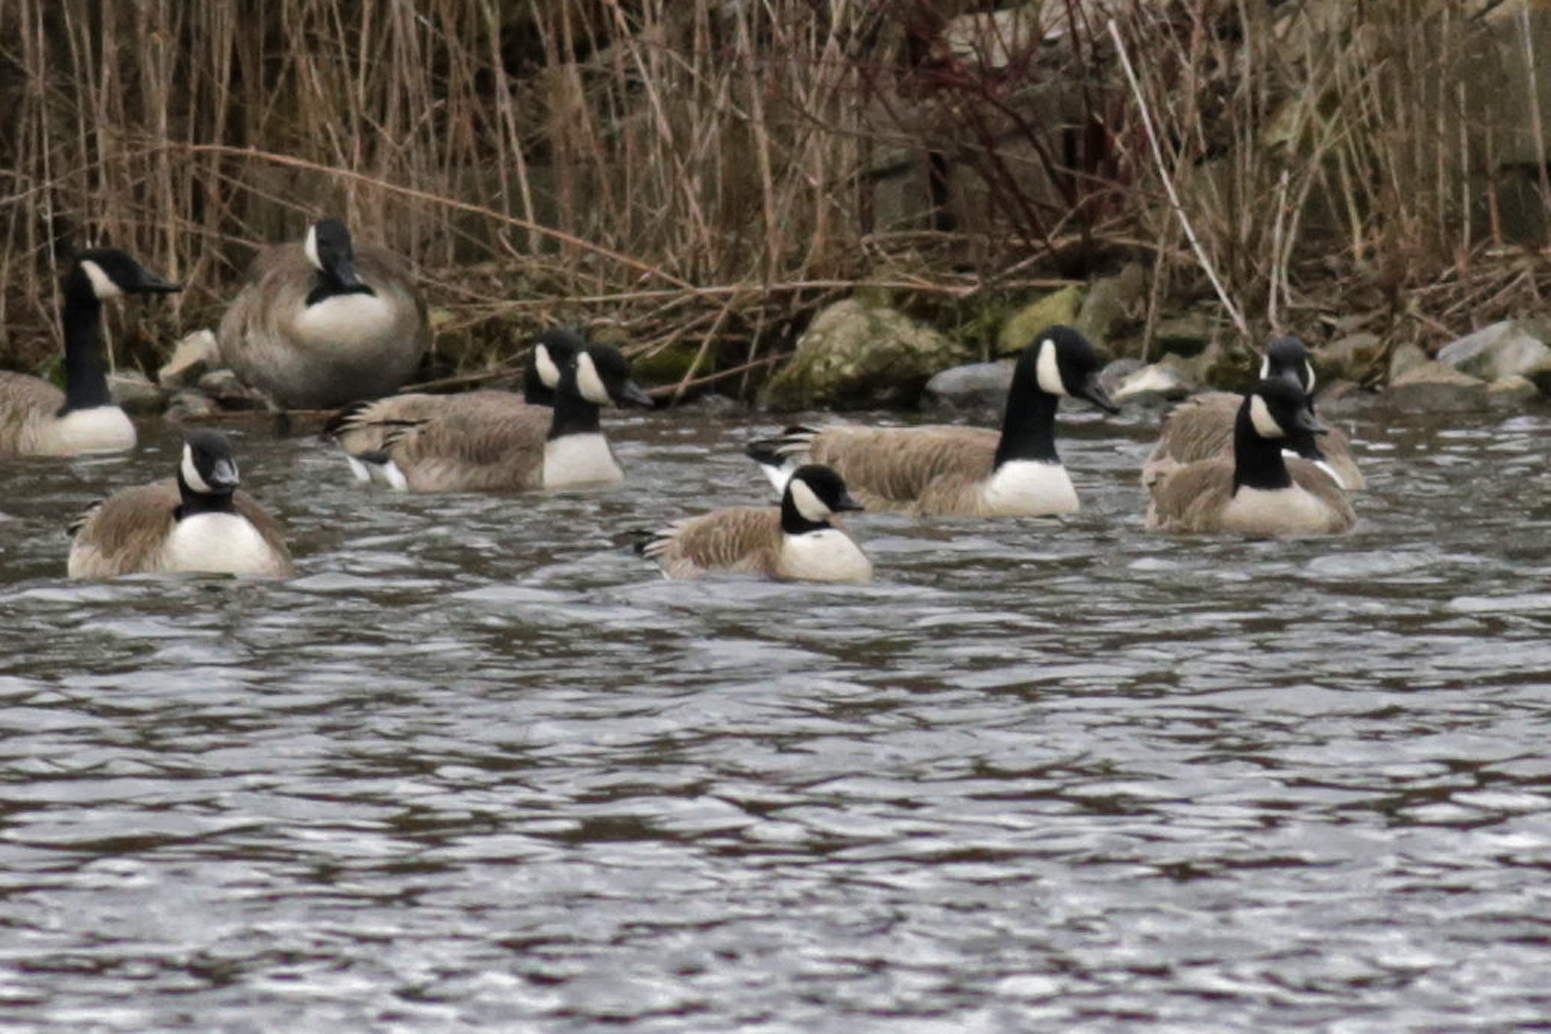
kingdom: Animalia
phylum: Chordata
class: Aves
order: Anseriformes
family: Anatidae
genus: Branta
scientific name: Branta hutchinsii
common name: Cackling goose
